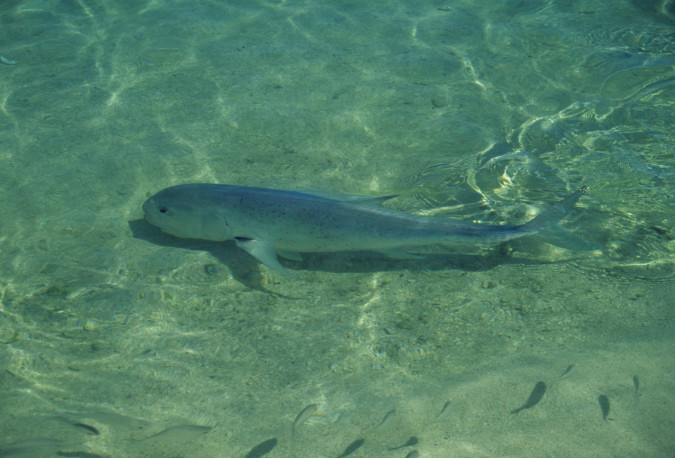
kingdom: Animalia
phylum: Chordata
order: Perciformes
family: Carangidae
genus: Caranx
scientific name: Caranx ignobilis
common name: Giant trevally
